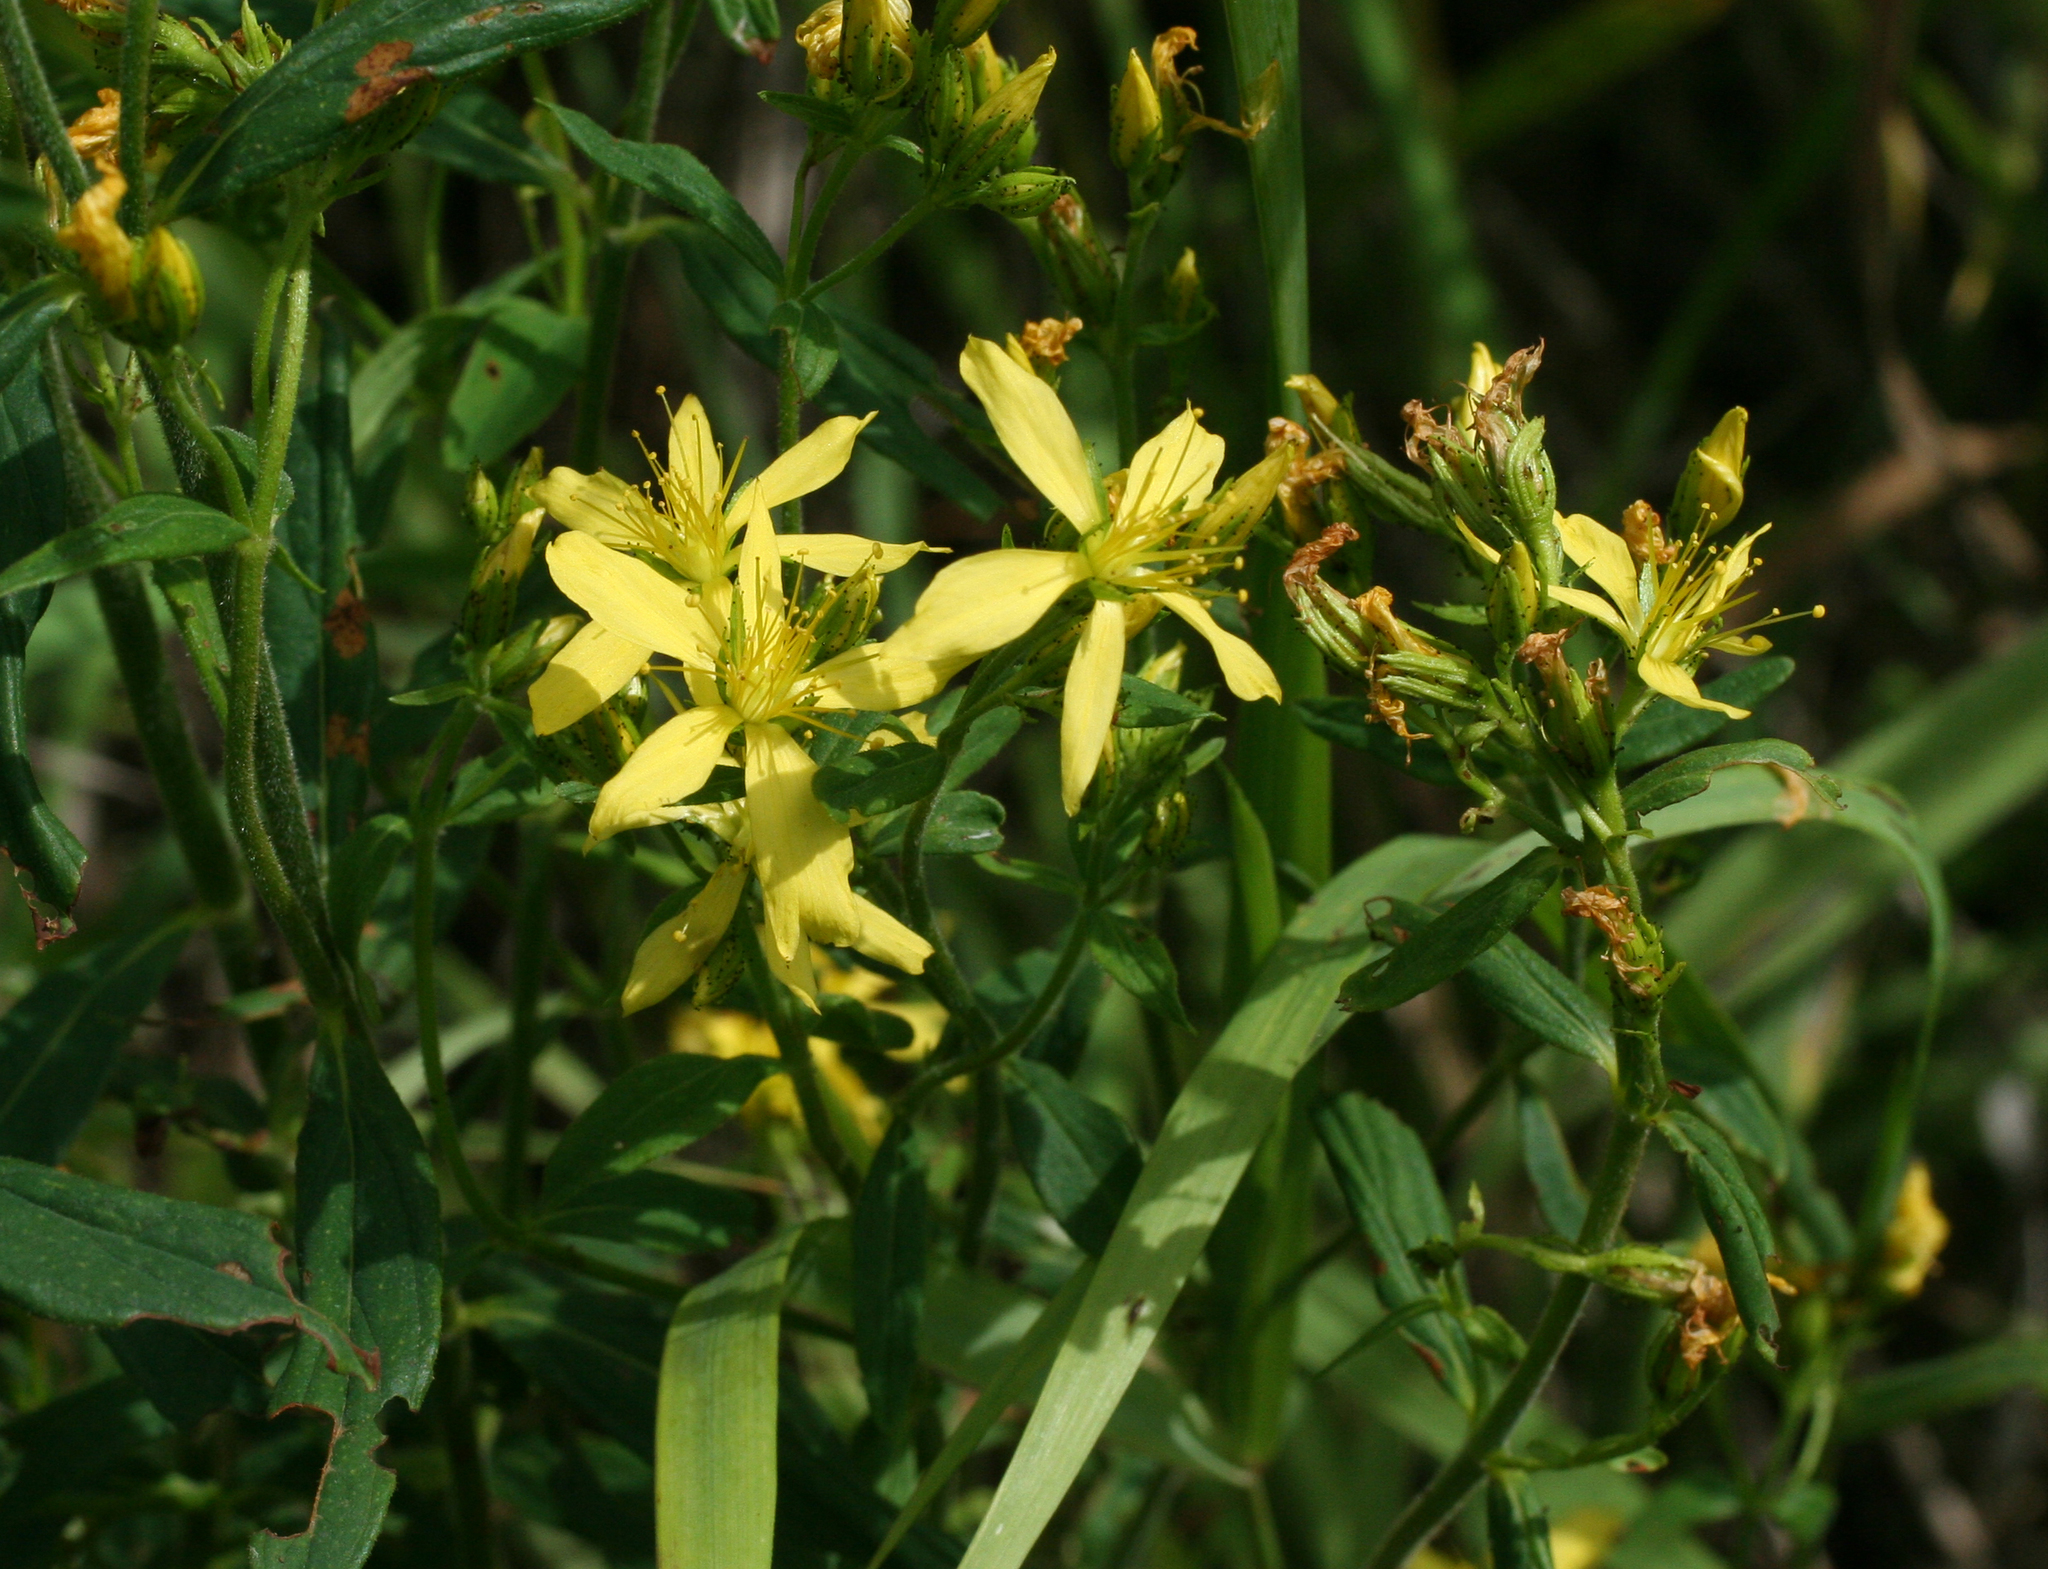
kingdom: Plantae
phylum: Tracheophyta
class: Magnoliopsida
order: Malpighiales
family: Hypericaceae
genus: Hypericum
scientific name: Hypericum hirsutum
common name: Hairy st. john's-wort
